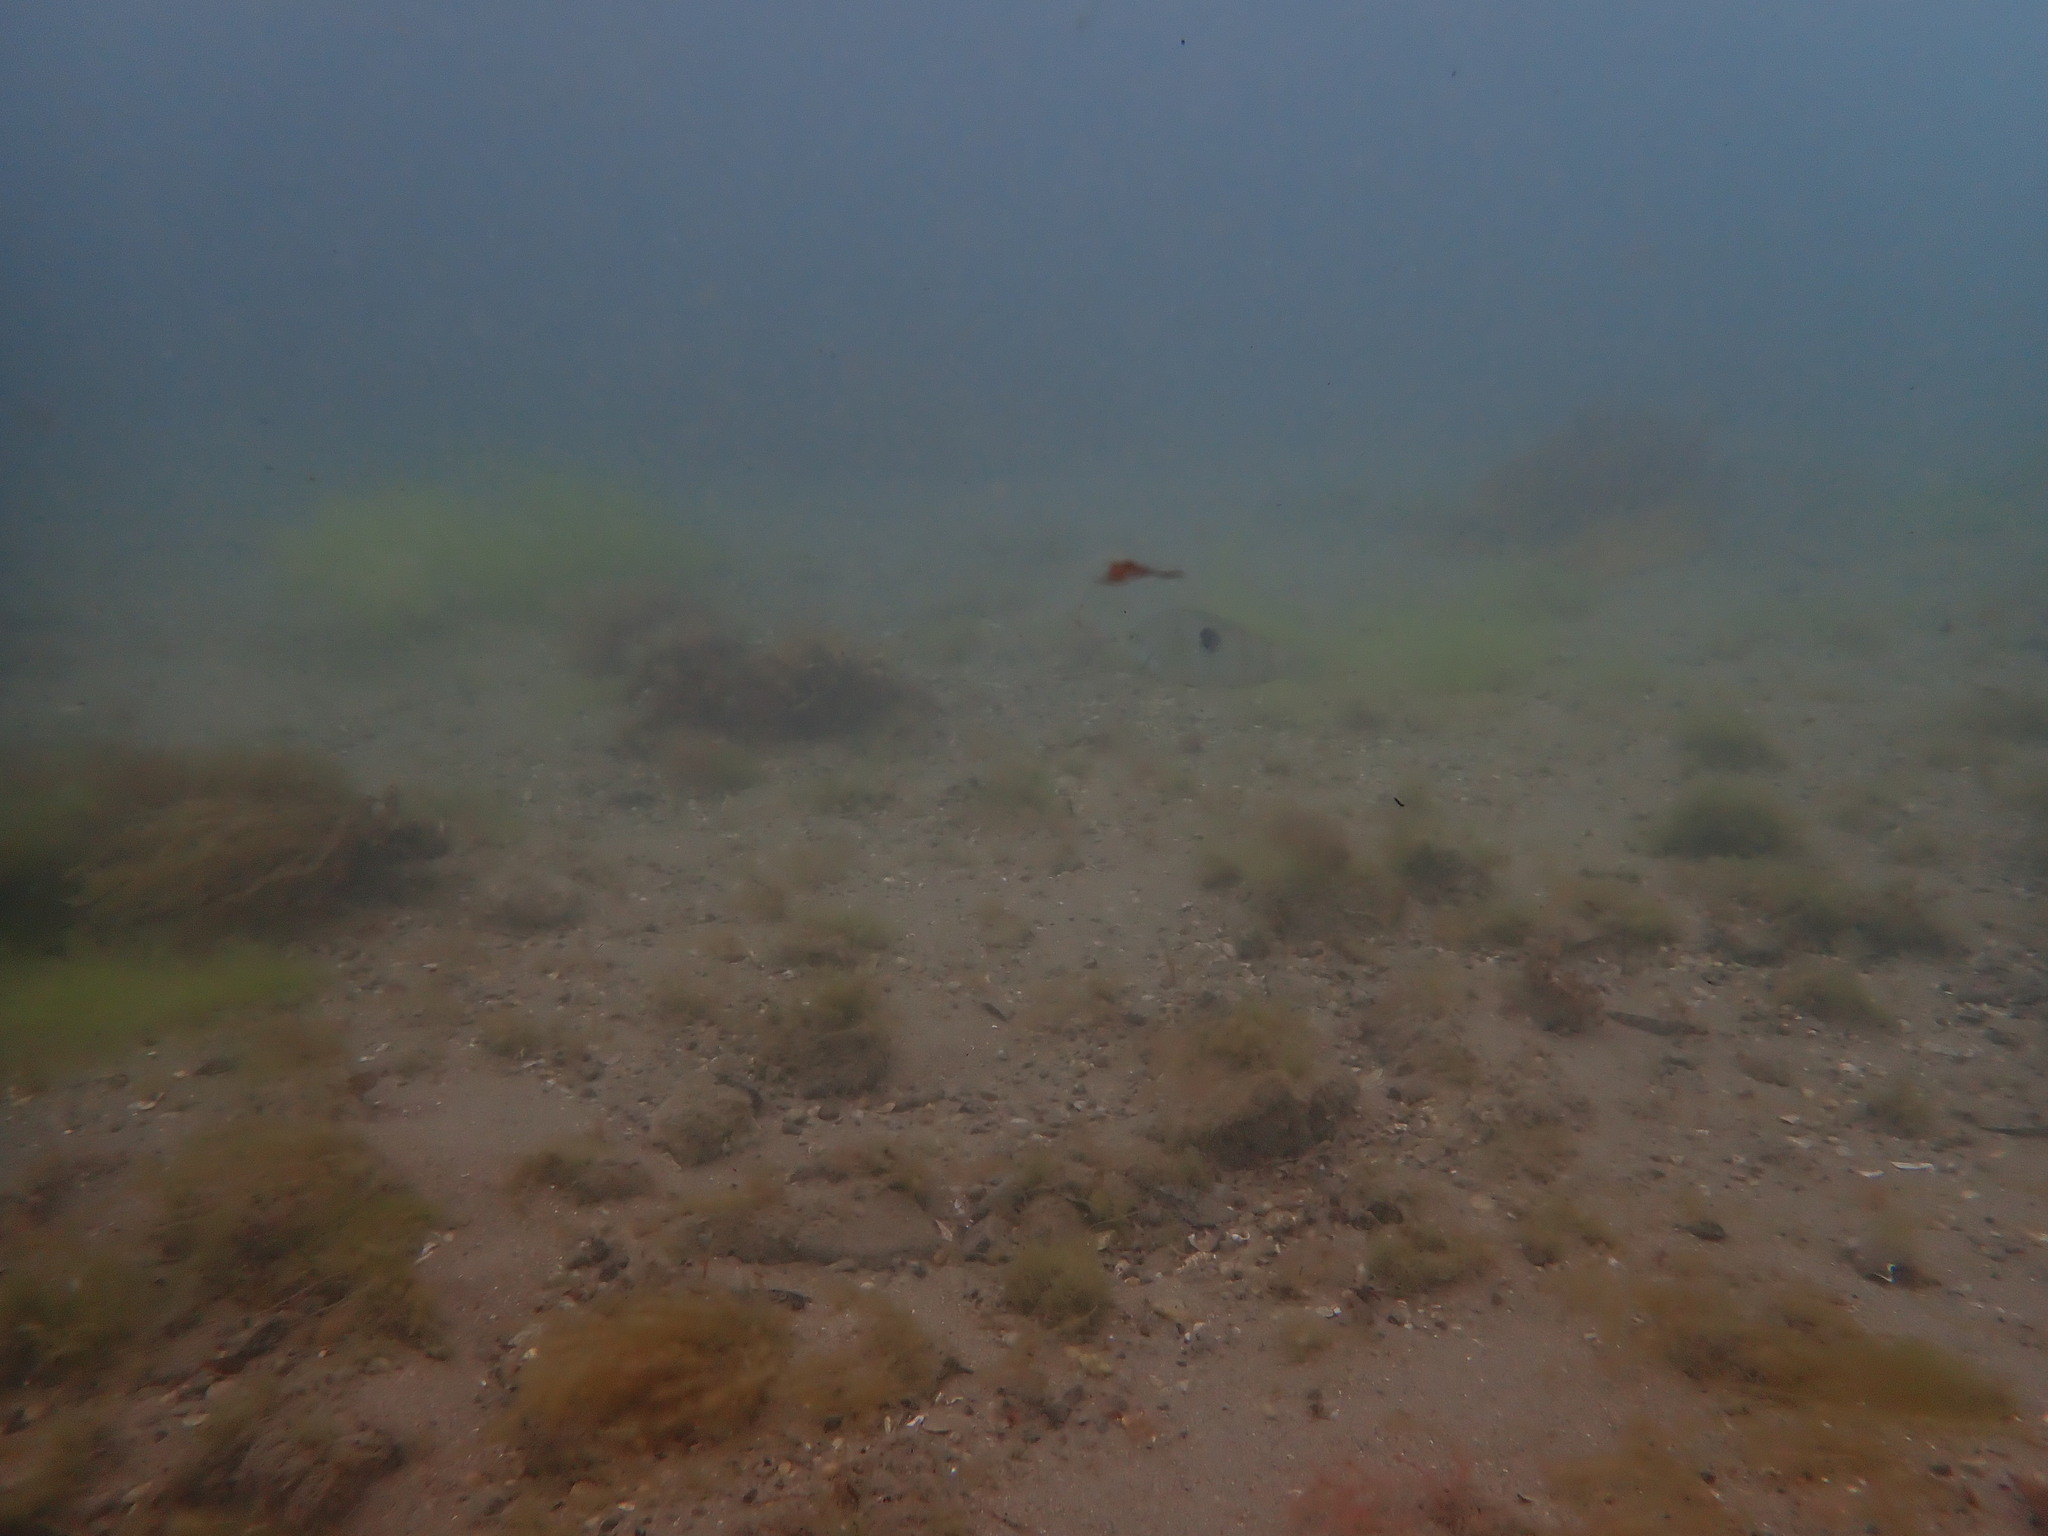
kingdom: Animalia
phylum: Chordata
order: Perciformes
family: Labridae
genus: Notolabrus
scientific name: Notolabrus celidotus
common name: Spotty
